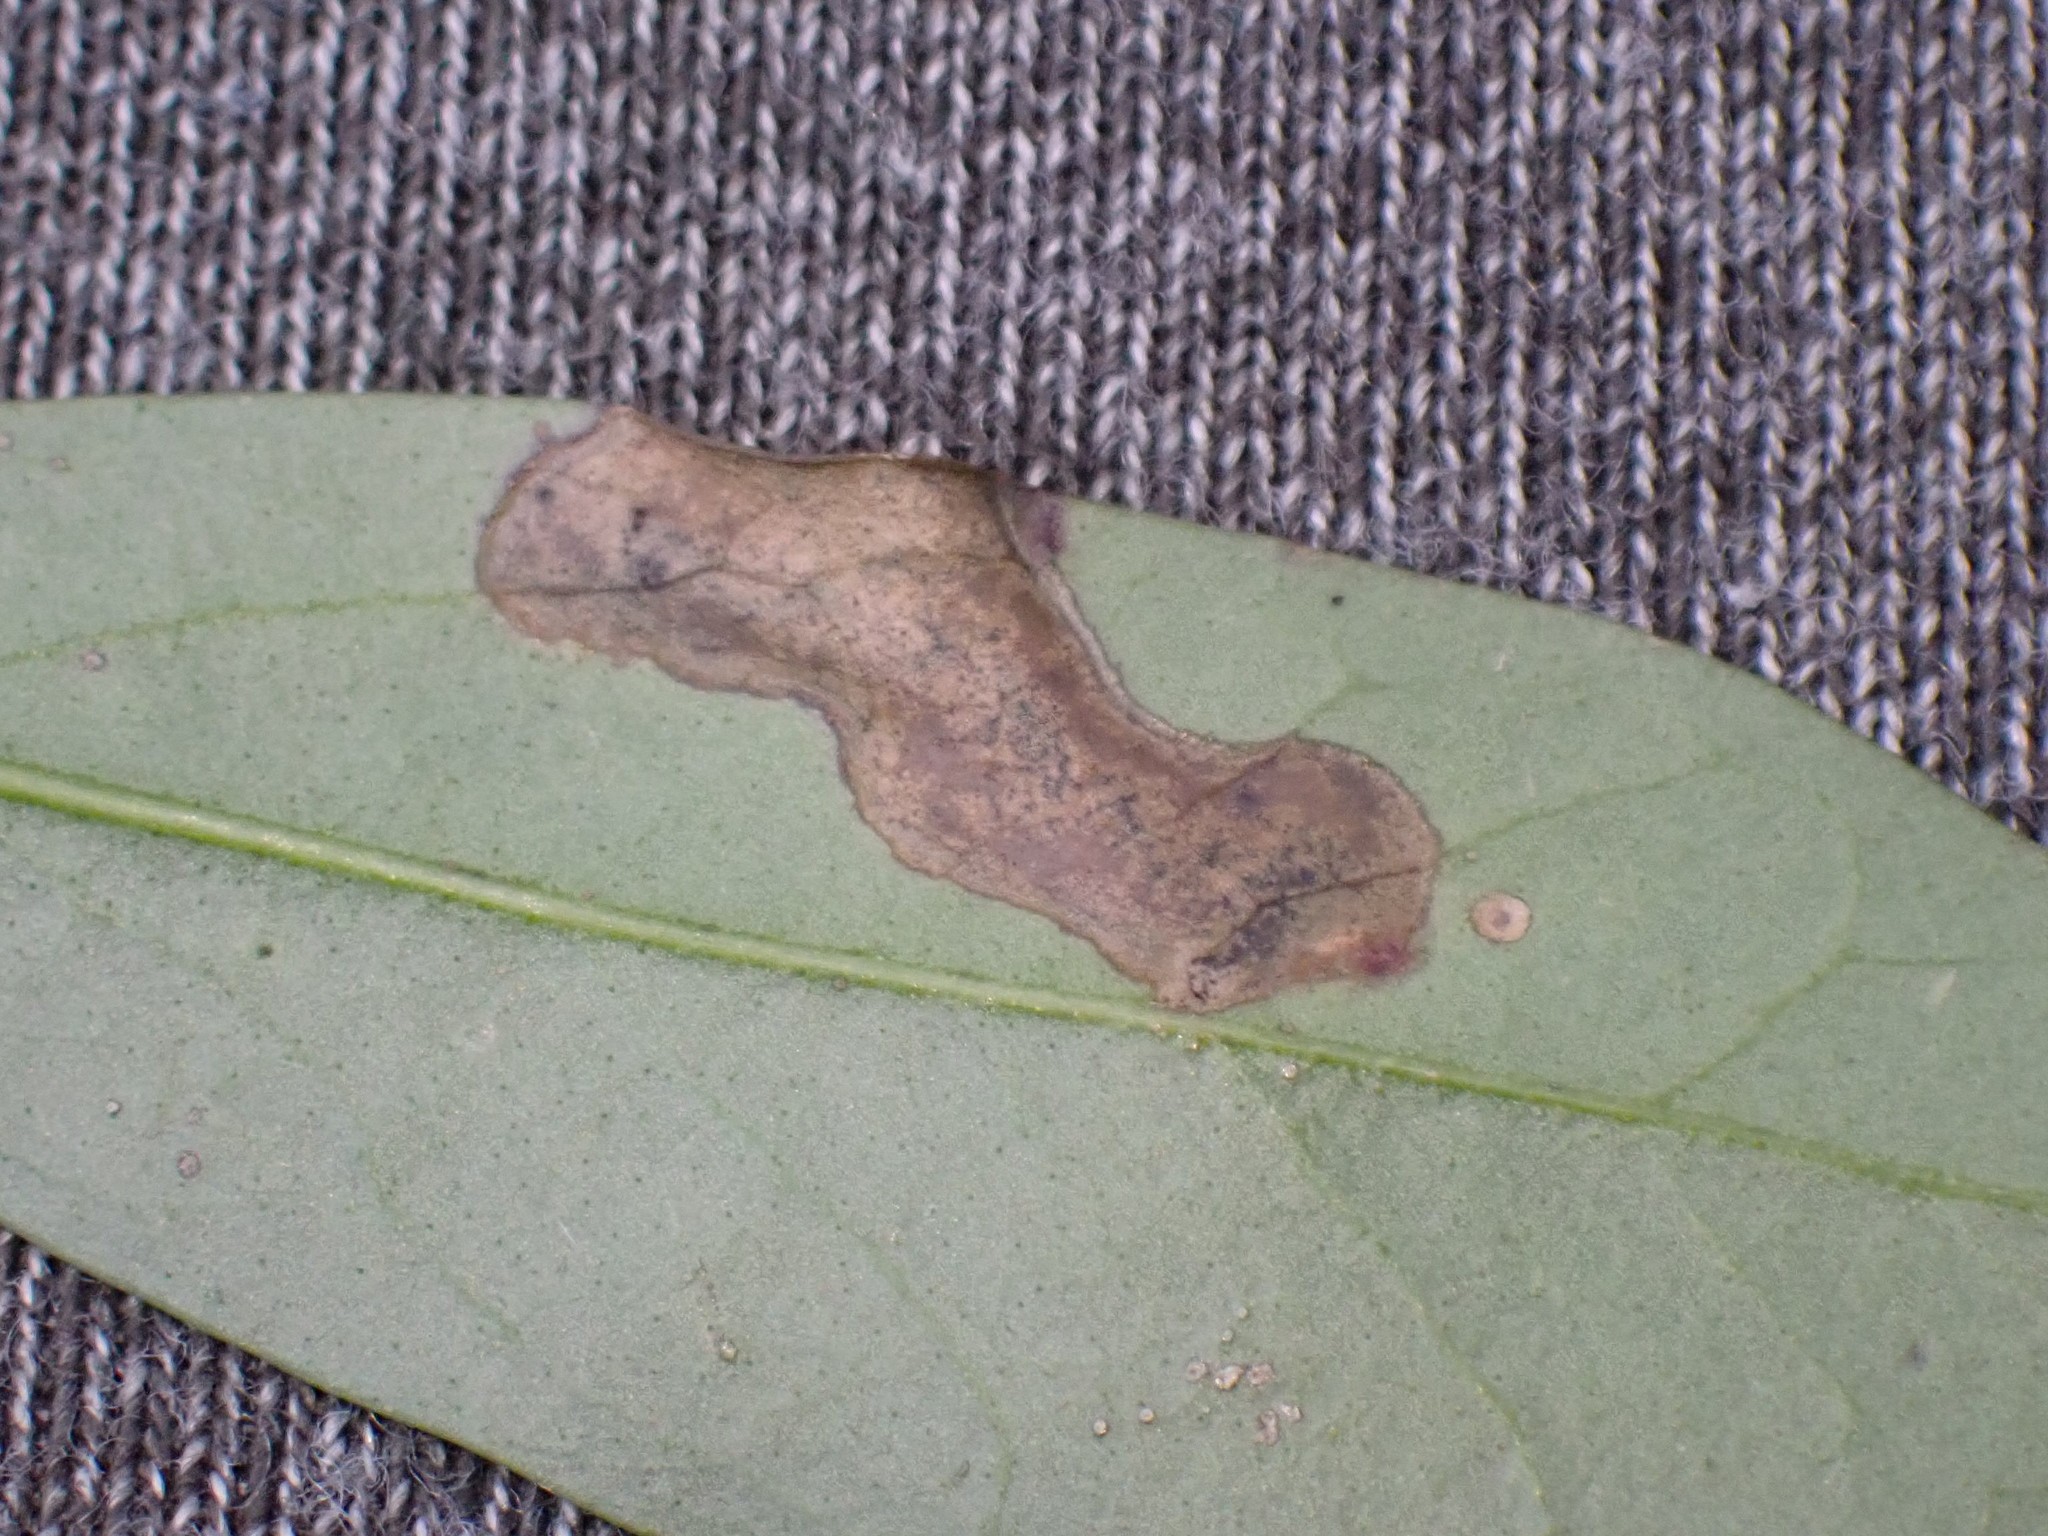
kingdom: Animalia
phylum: Arthropoda
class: Insecta
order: Lepidoptera
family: Gracillariidae
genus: Gracillaria
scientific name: Gracillaria syringella
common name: Common slender
